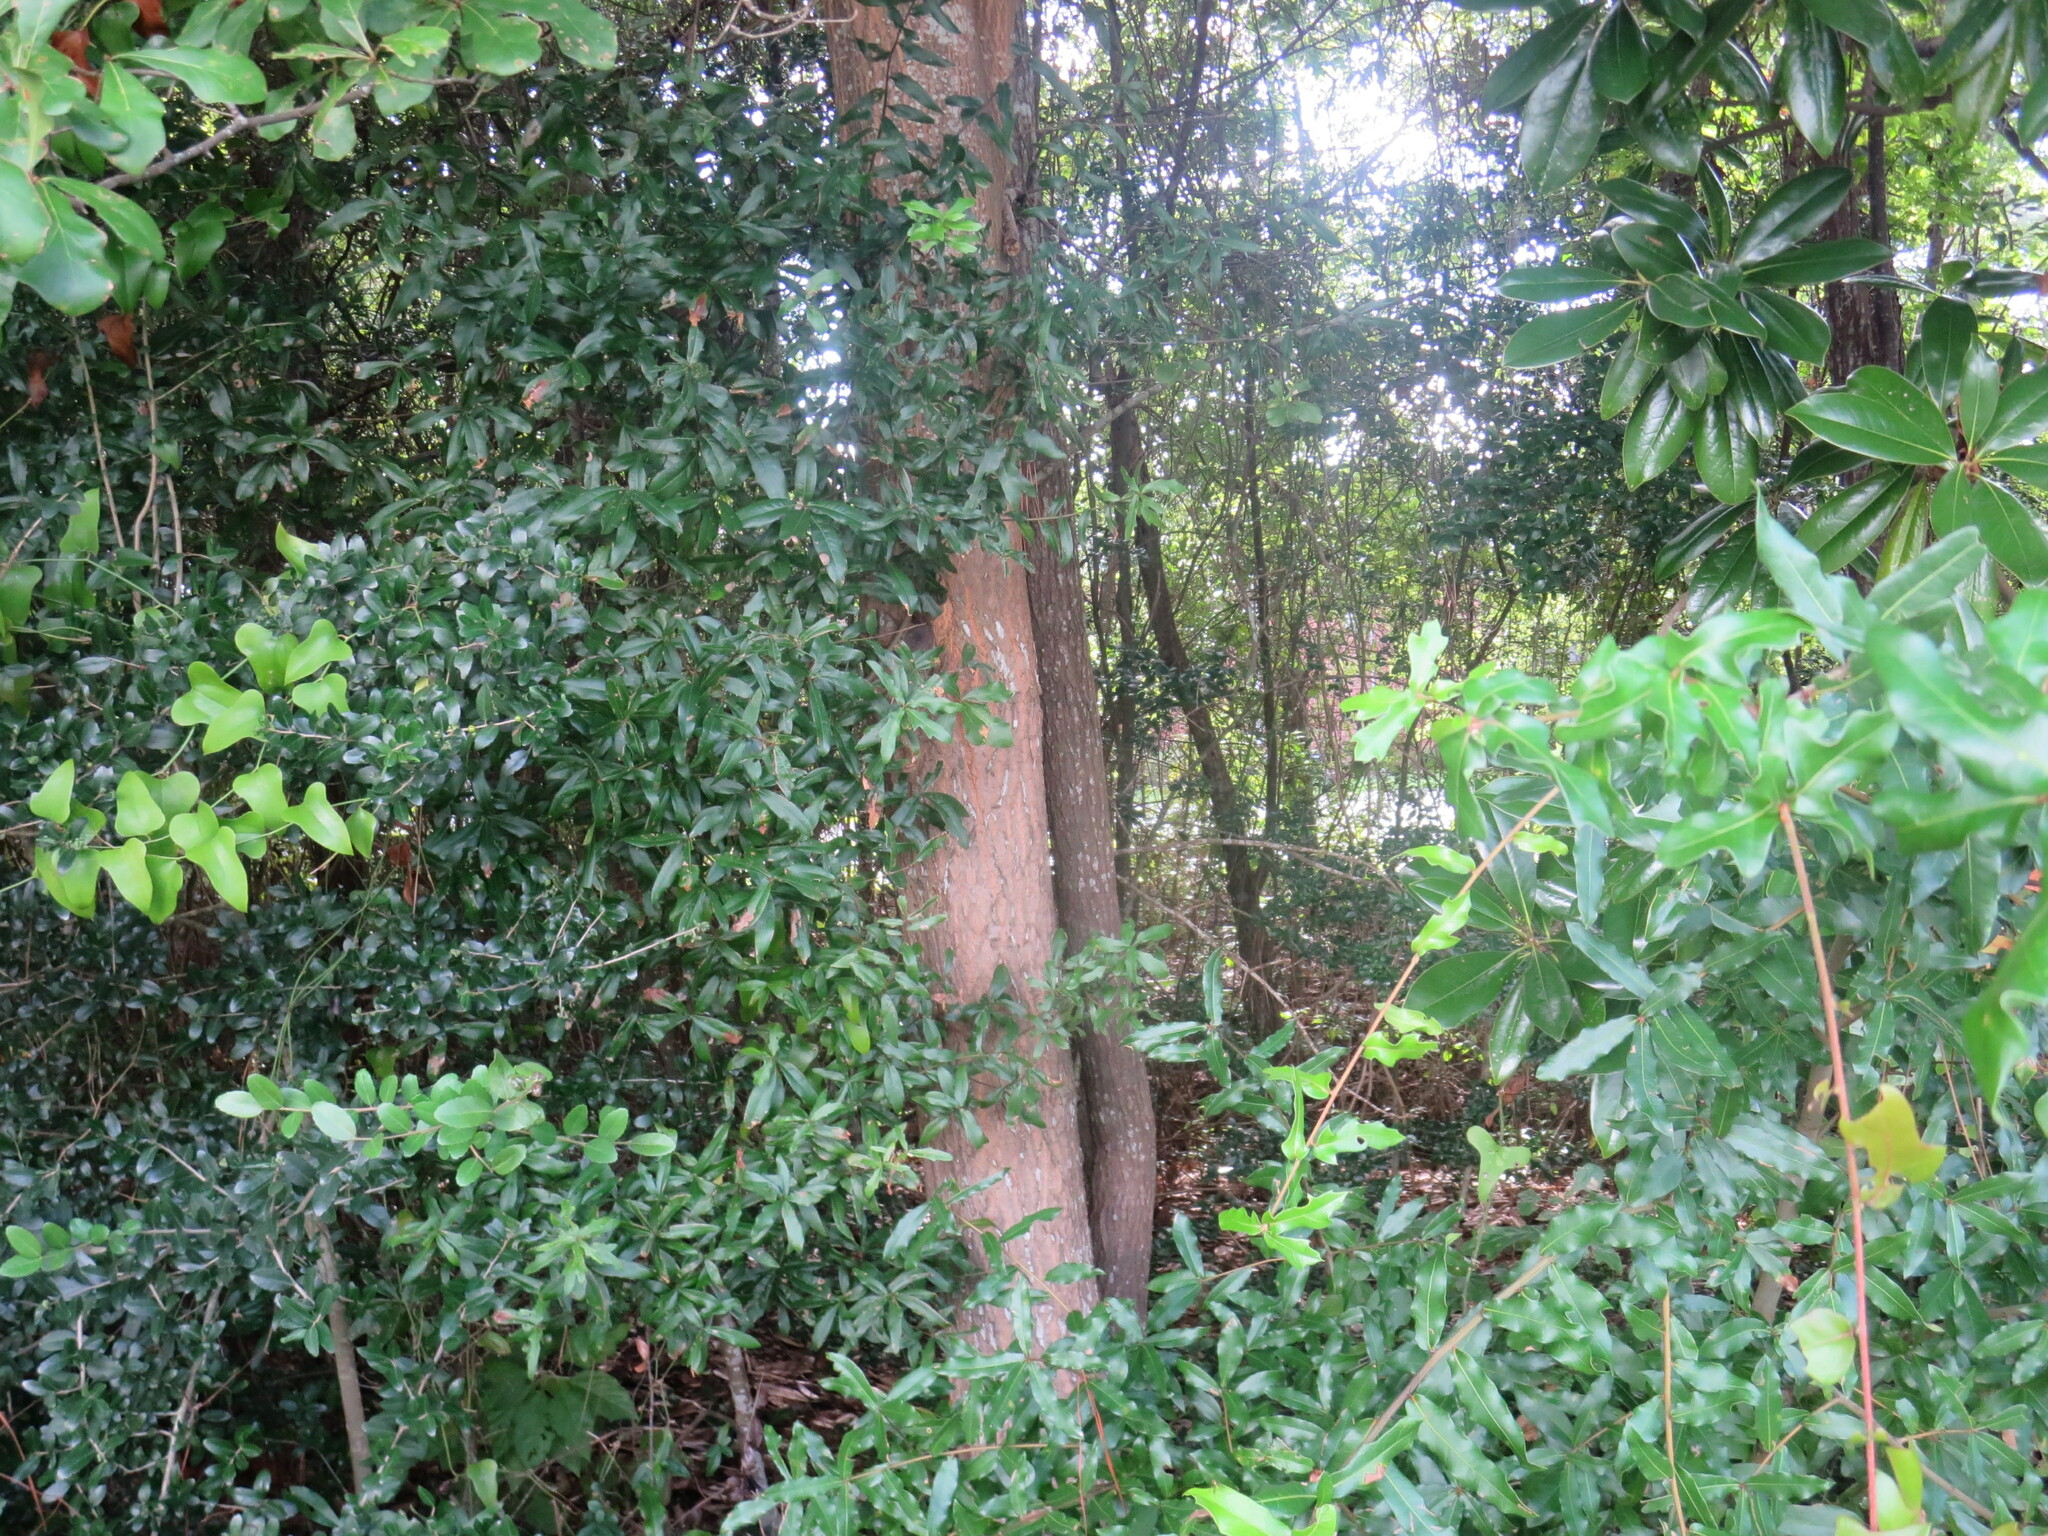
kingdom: Plantae
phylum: Tracheophyta
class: Magnoliopsida
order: Fagales
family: Fagaceae
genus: Quercus
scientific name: Quercus nigra
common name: Water oak
